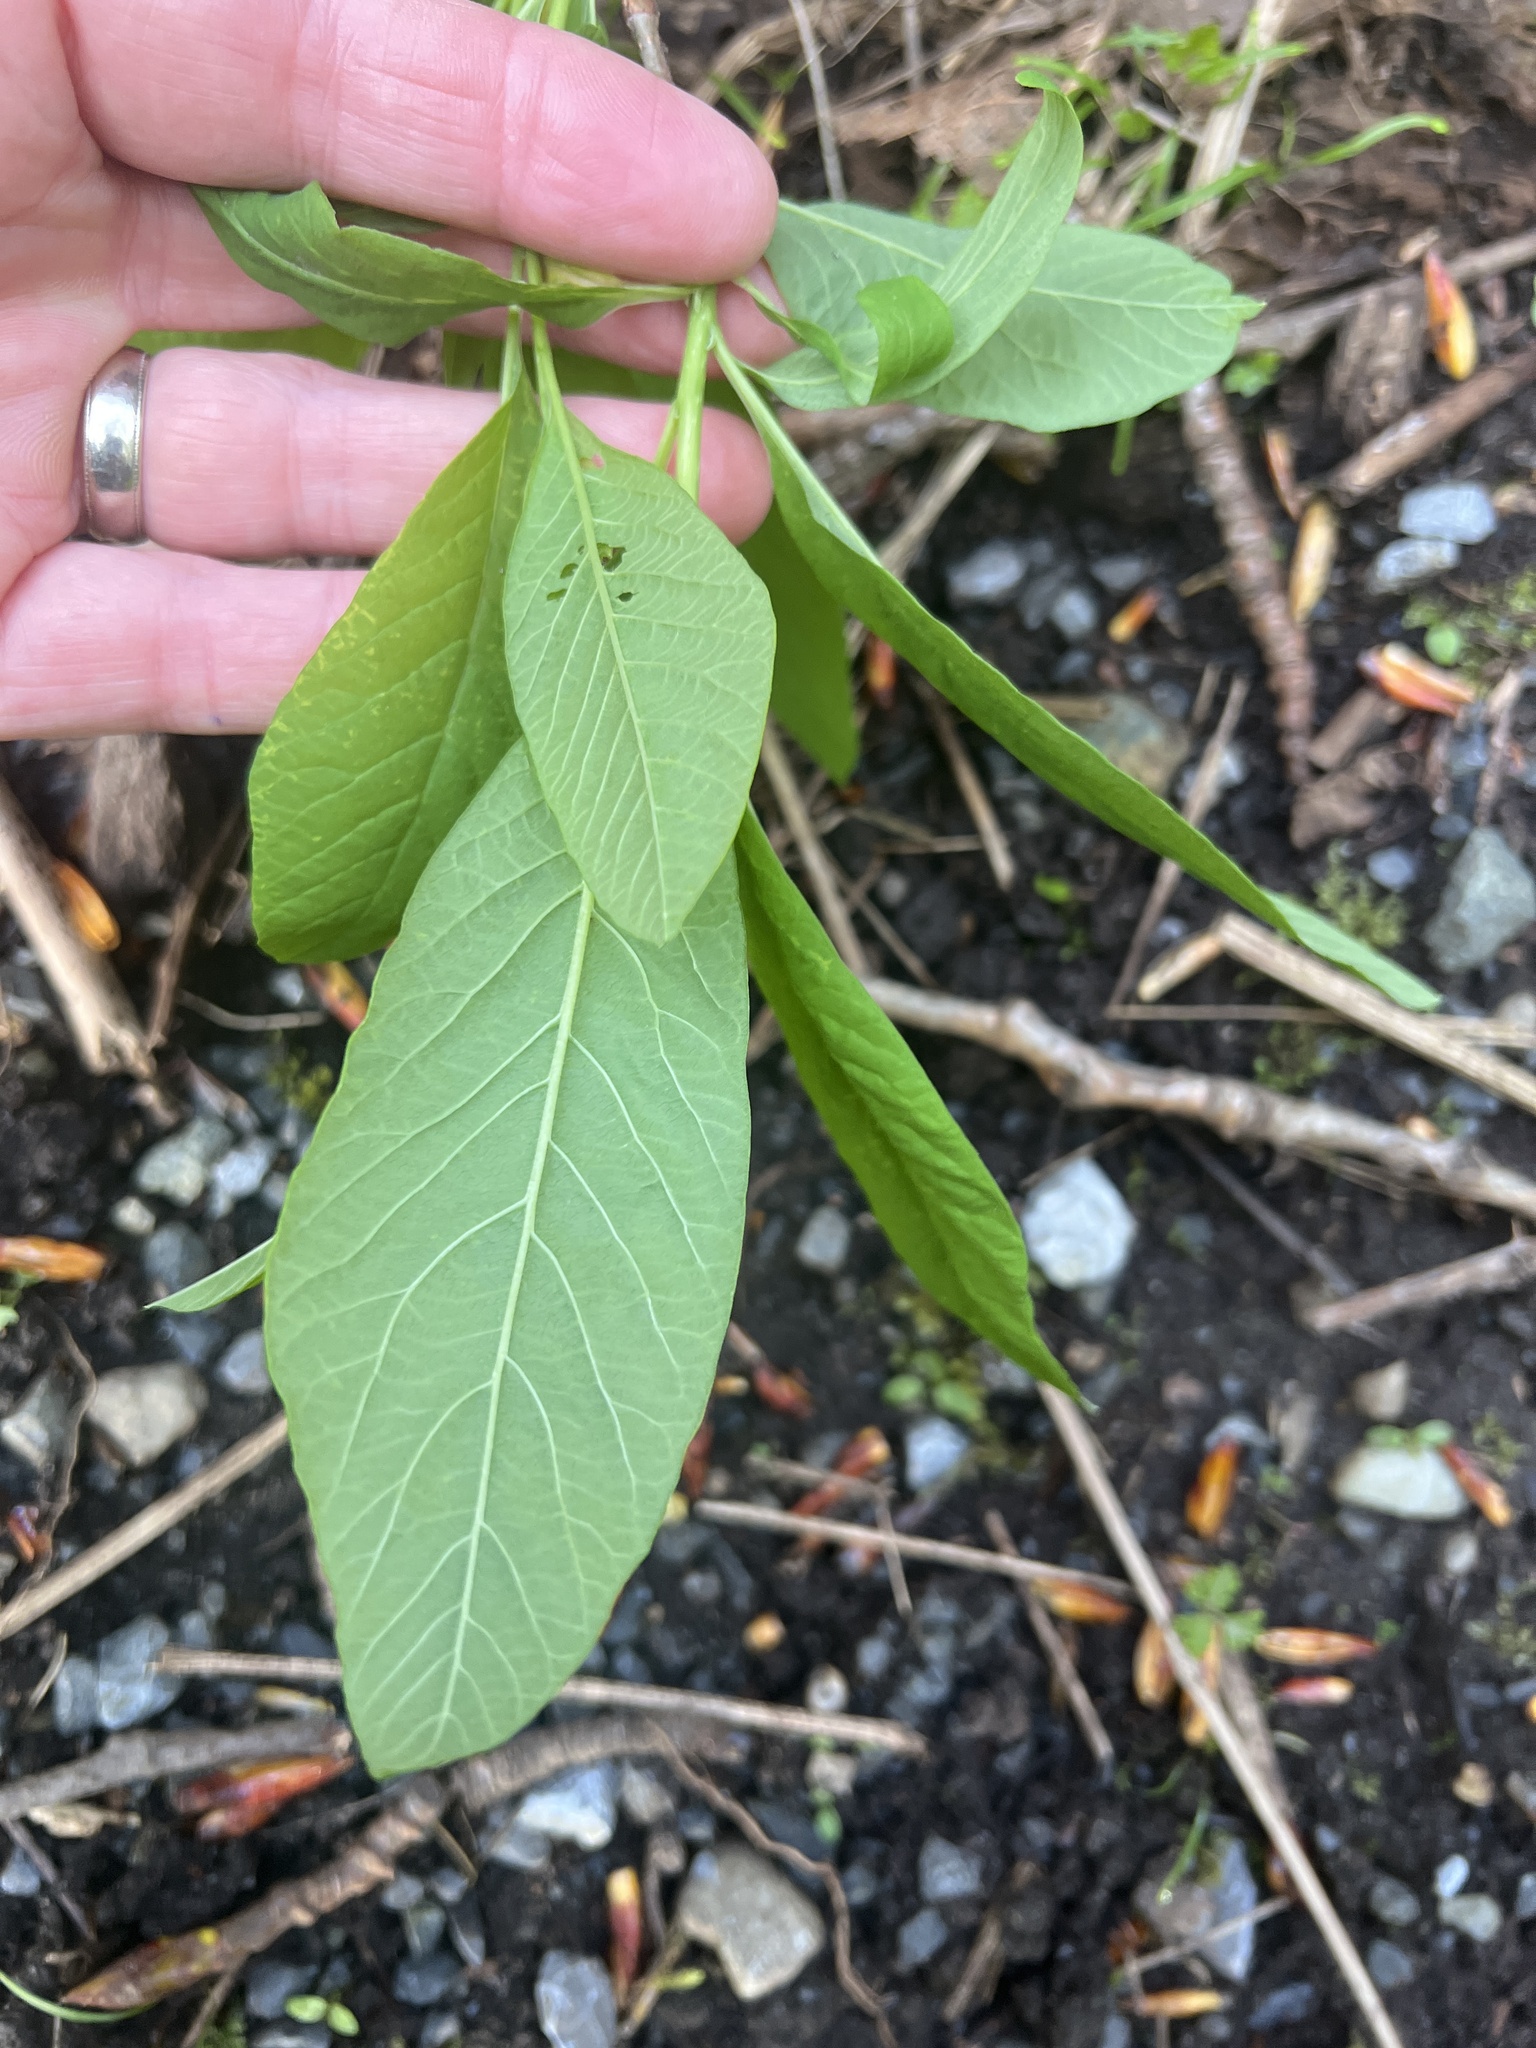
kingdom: Plantae
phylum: Tracheophyta
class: Magnoliopsida
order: Rosales
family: Rosaceae
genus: Oemleria
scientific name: Oemleria cerasiformis
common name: Osoberry
